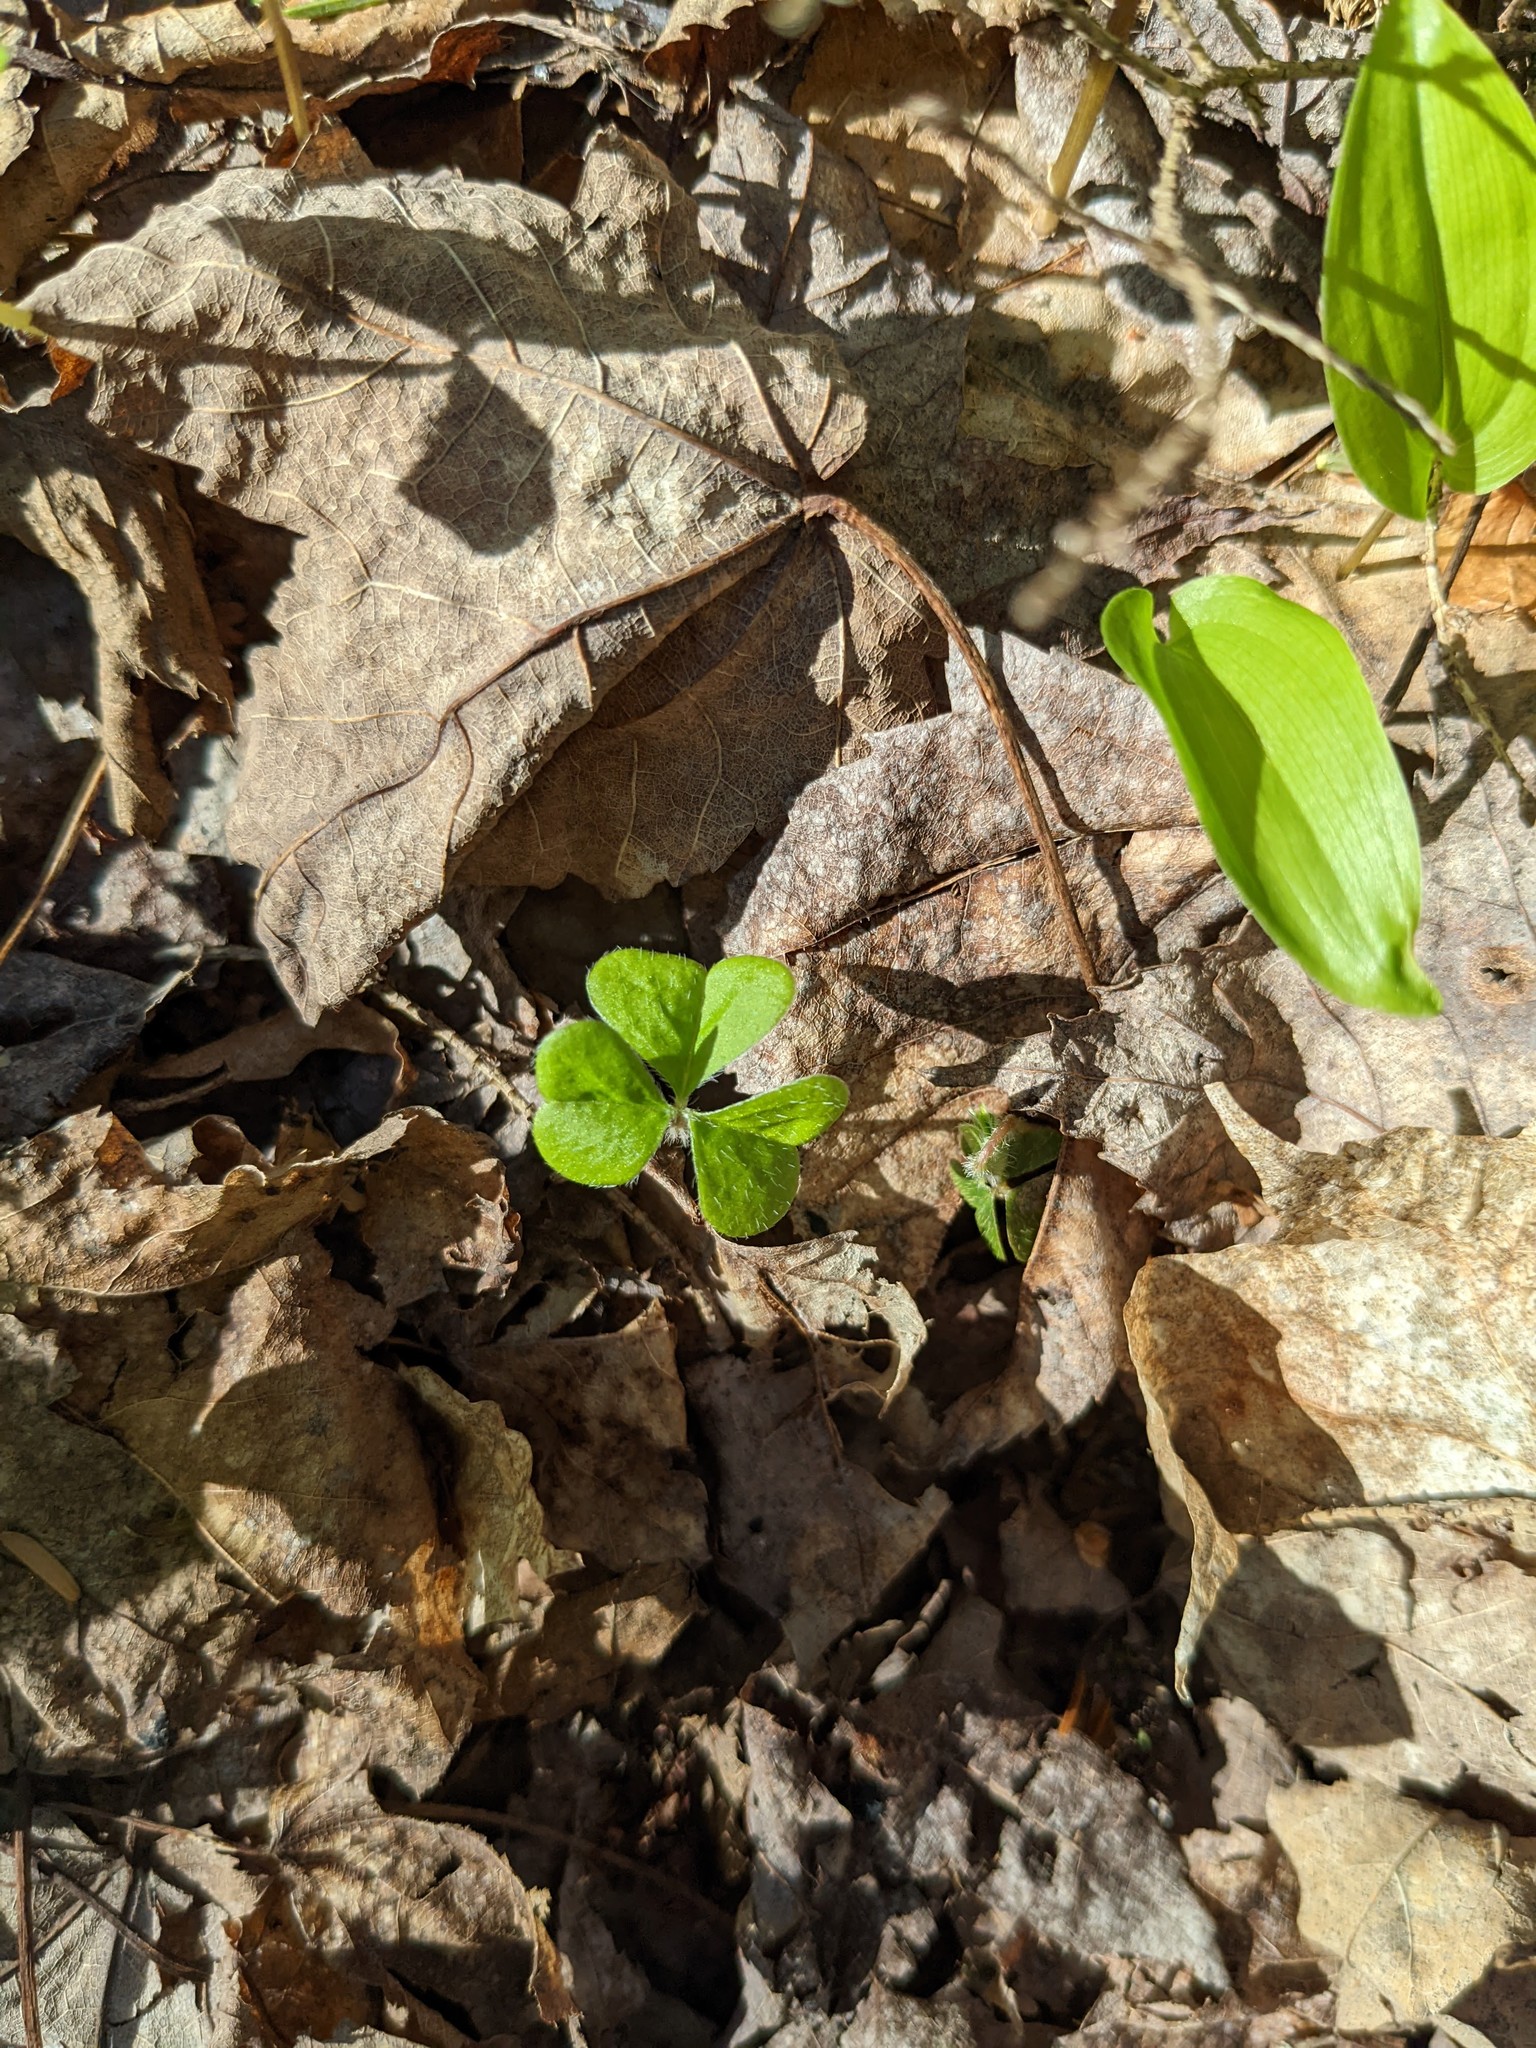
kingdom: Plantae
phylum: Tracheophyta
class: Magnoliopsida
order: Oxalidales
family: Oxalidaceae
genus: Oxalis
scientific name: Oxalis montana
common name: American wood-sorrel
